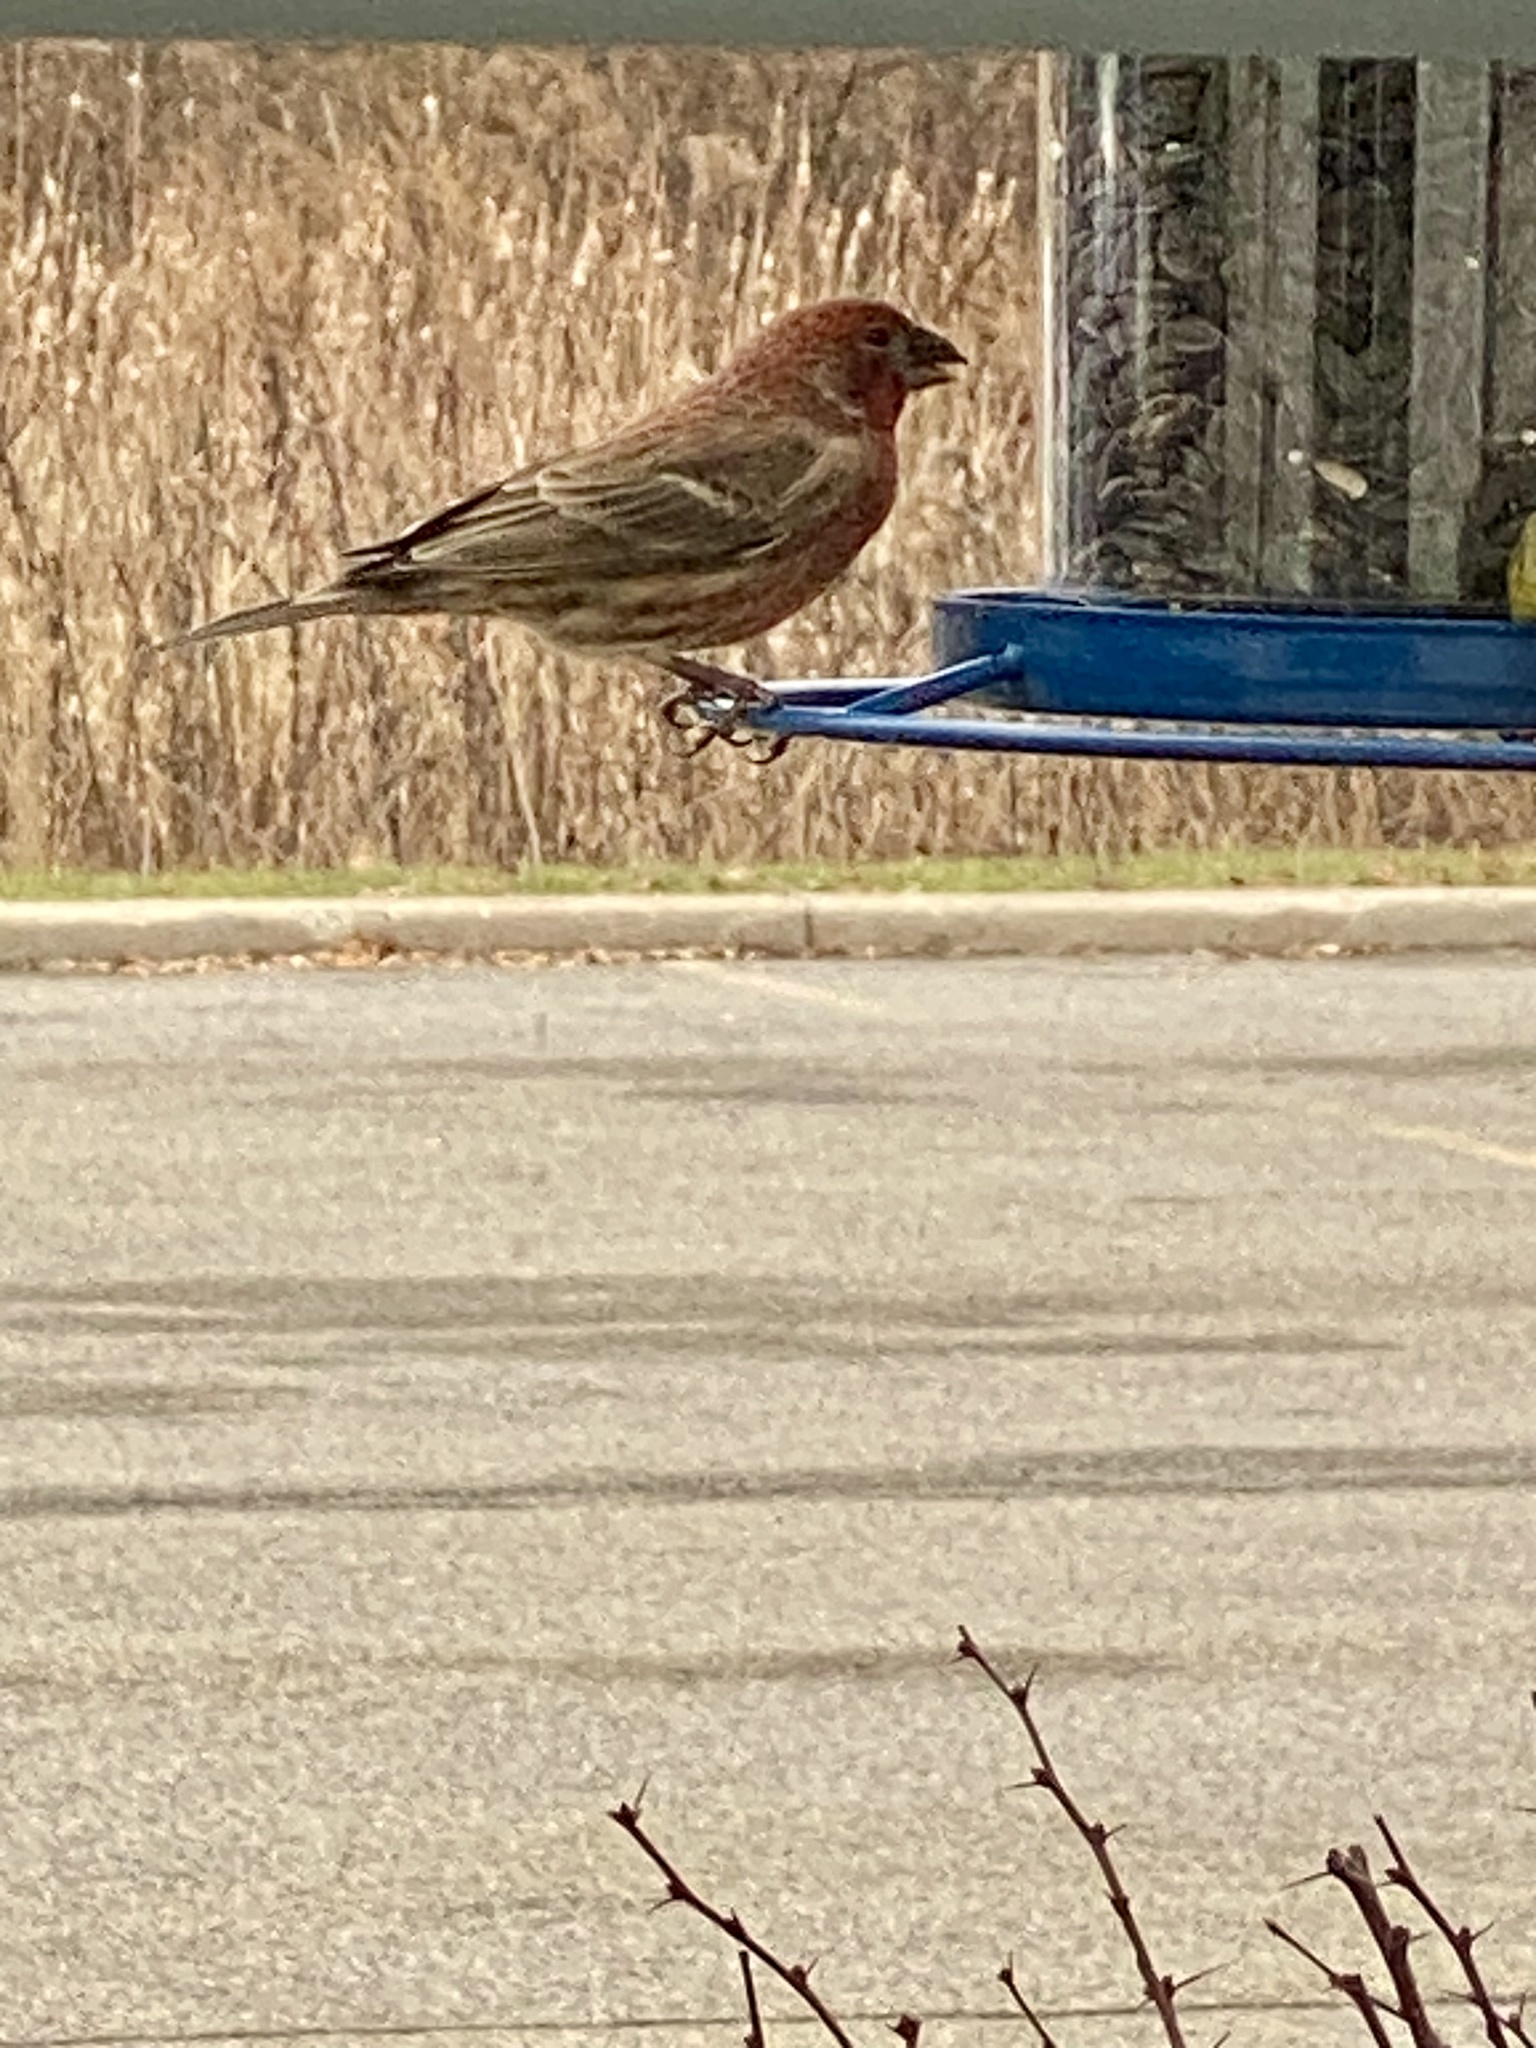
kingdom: Animalia
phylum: Chordata
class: Aves
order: Passeriformes
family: Fringillidae
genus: Haemorhous
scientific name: Haemorhous mexicanus
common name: House finch
